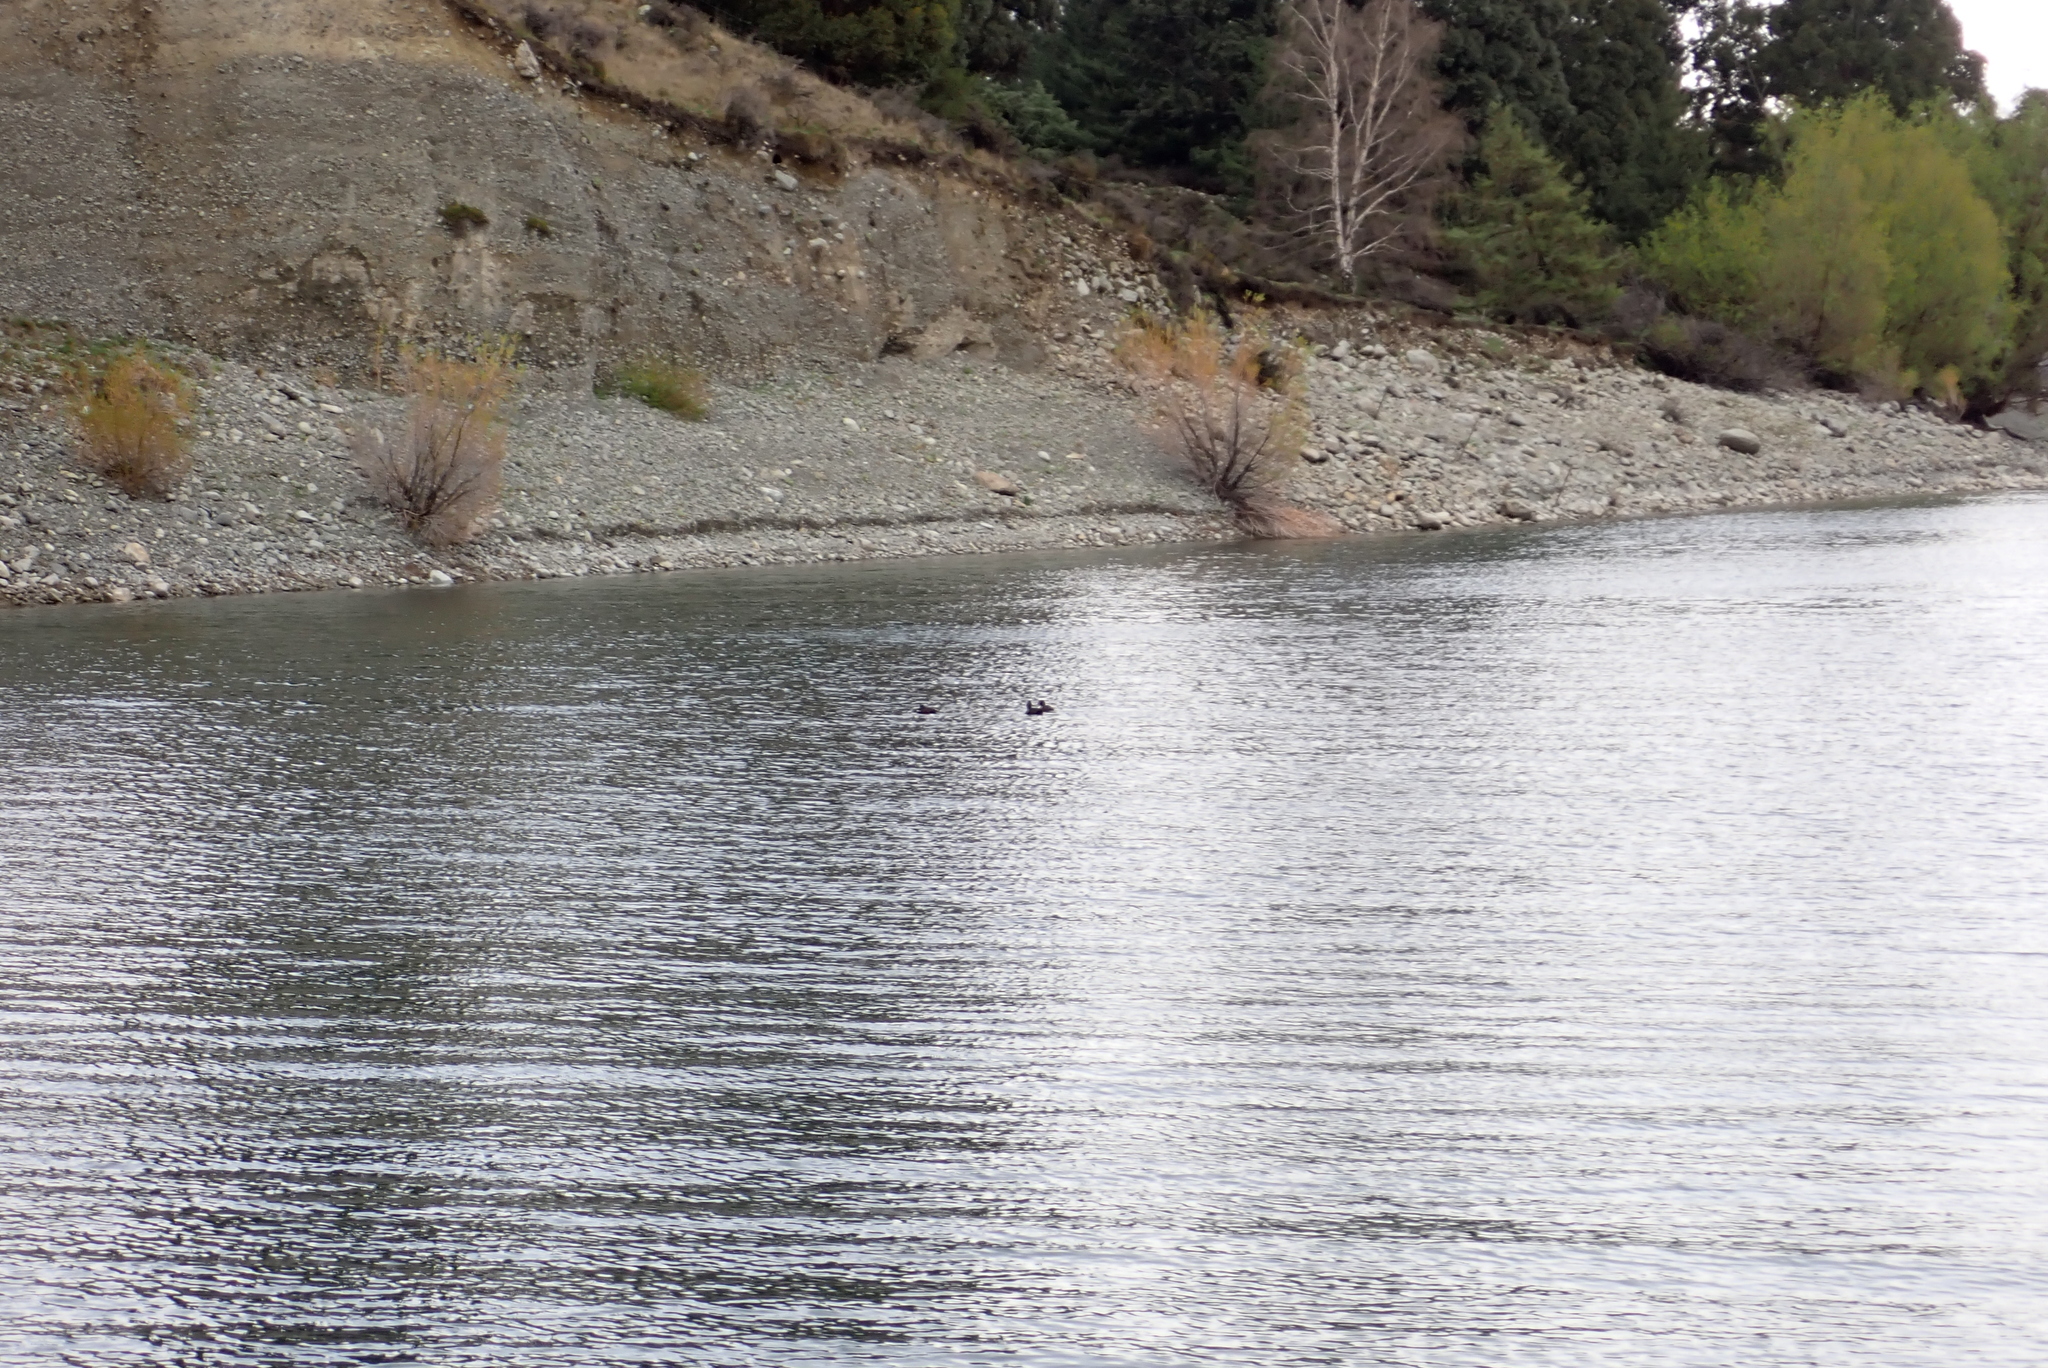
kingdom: Animalia
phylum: Chordata
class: Aves
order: Anseriformes
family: Anatidae
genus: Aythya
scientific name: Aythya novaeseelandiae
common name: New zealand scaup
